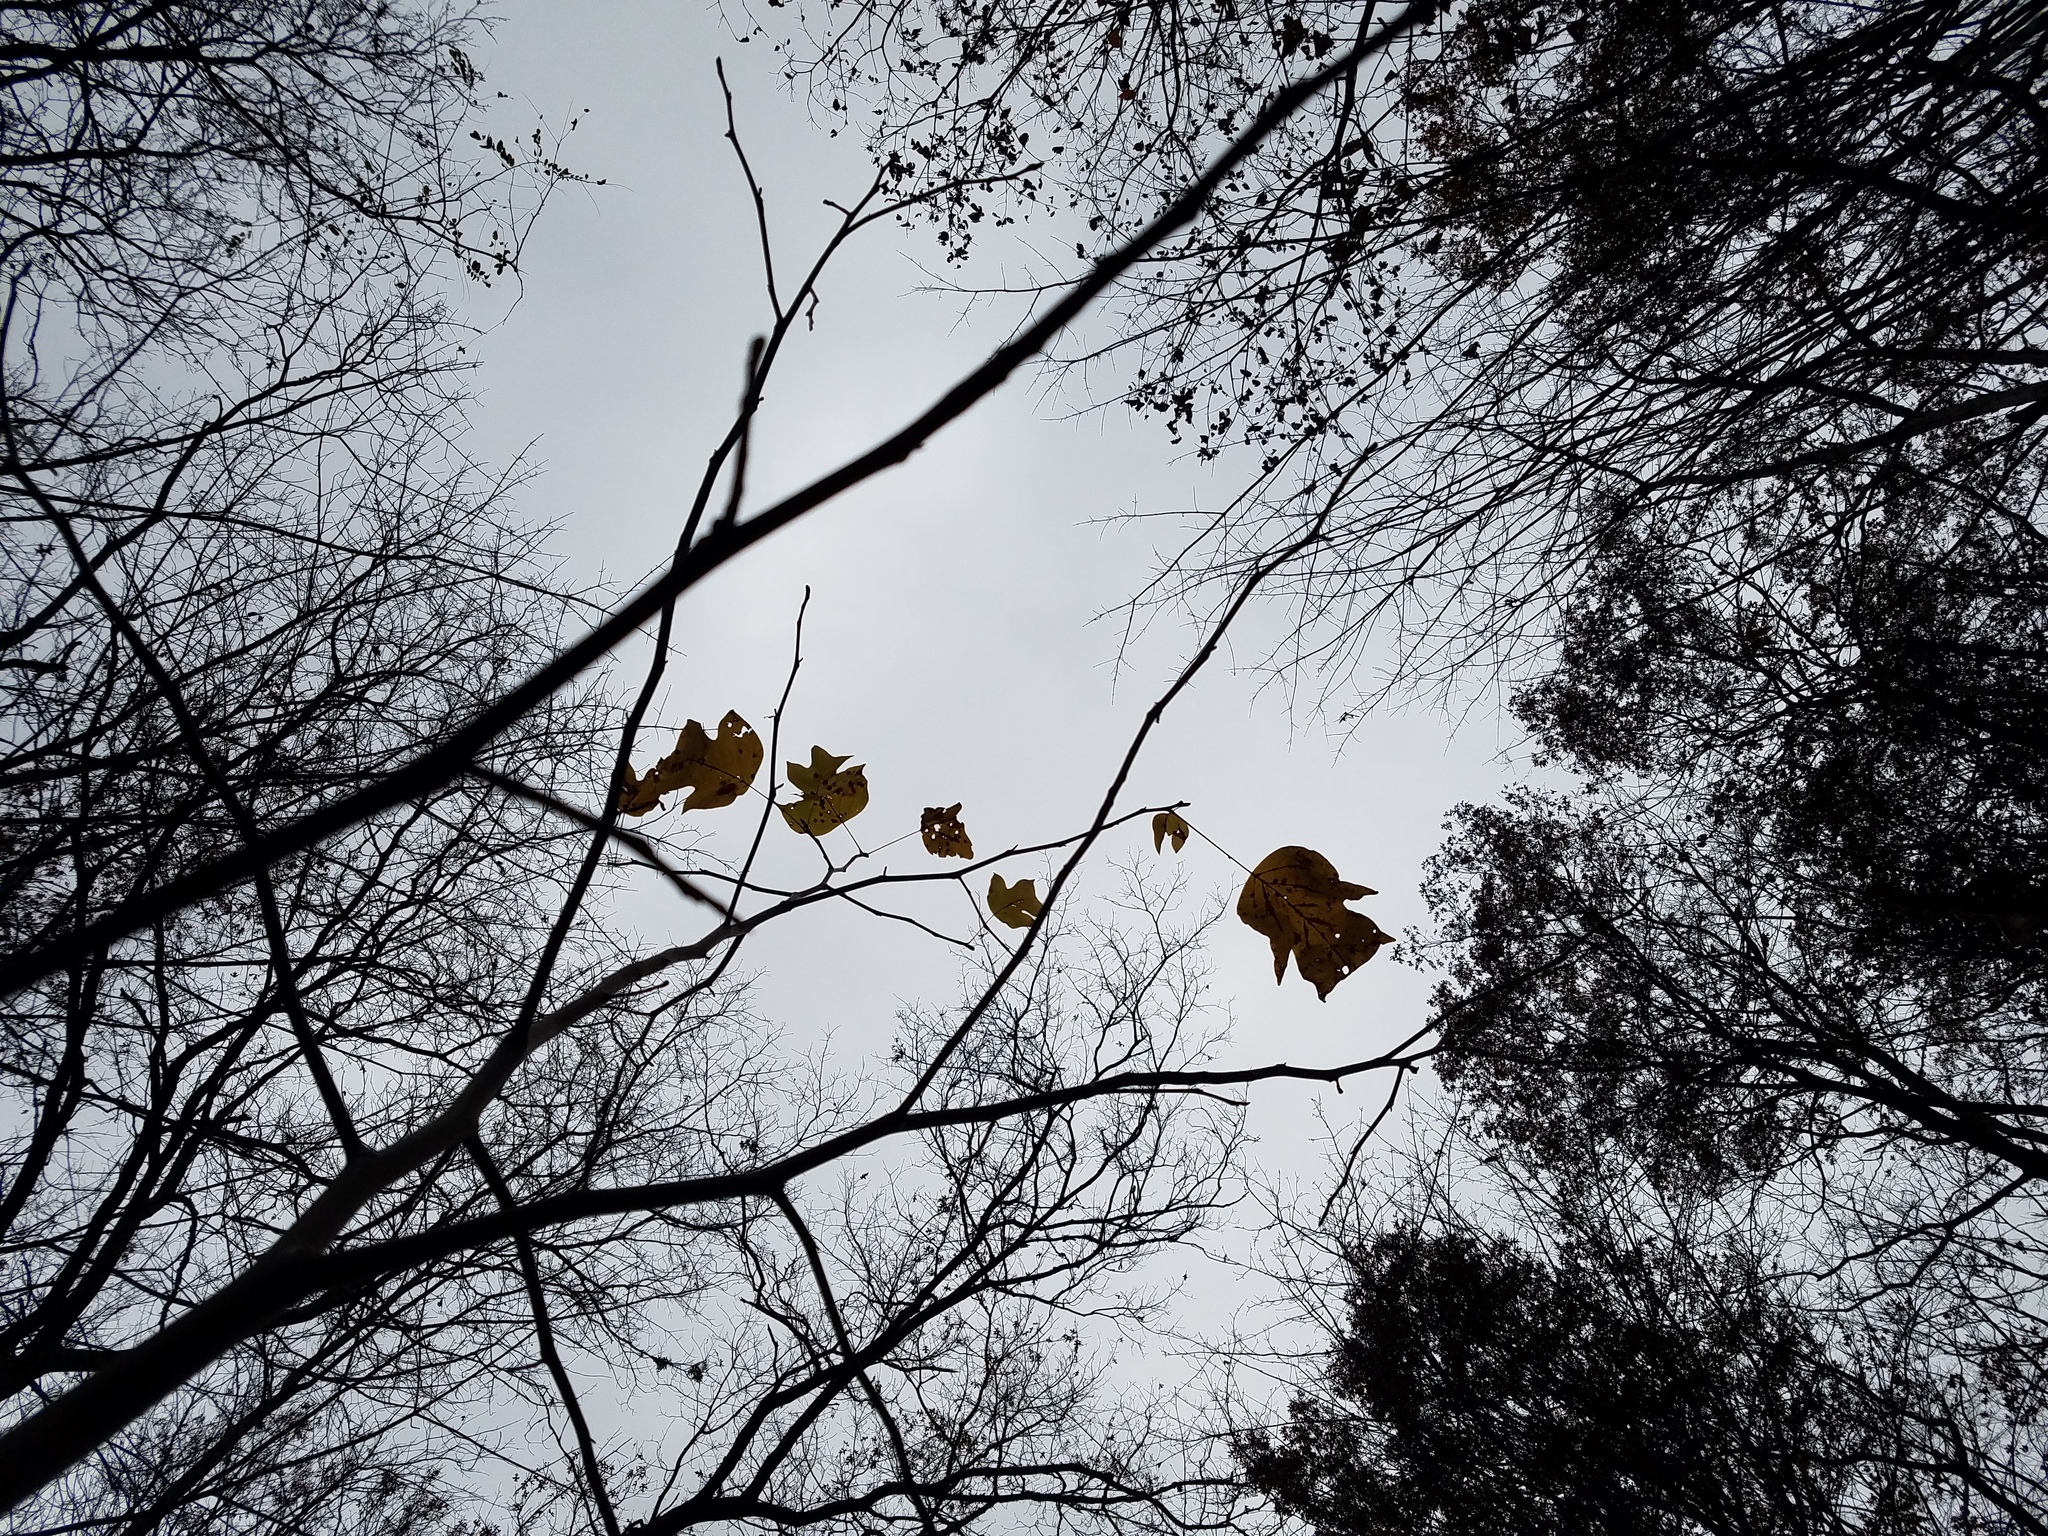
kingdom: Plantae
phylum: Tracheophyta
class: Magnoliopsida
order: Magnoliales
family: Magnoliaceae
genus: Liriodendron
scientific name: Liriodendron tulipifera
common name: Tulip tree
